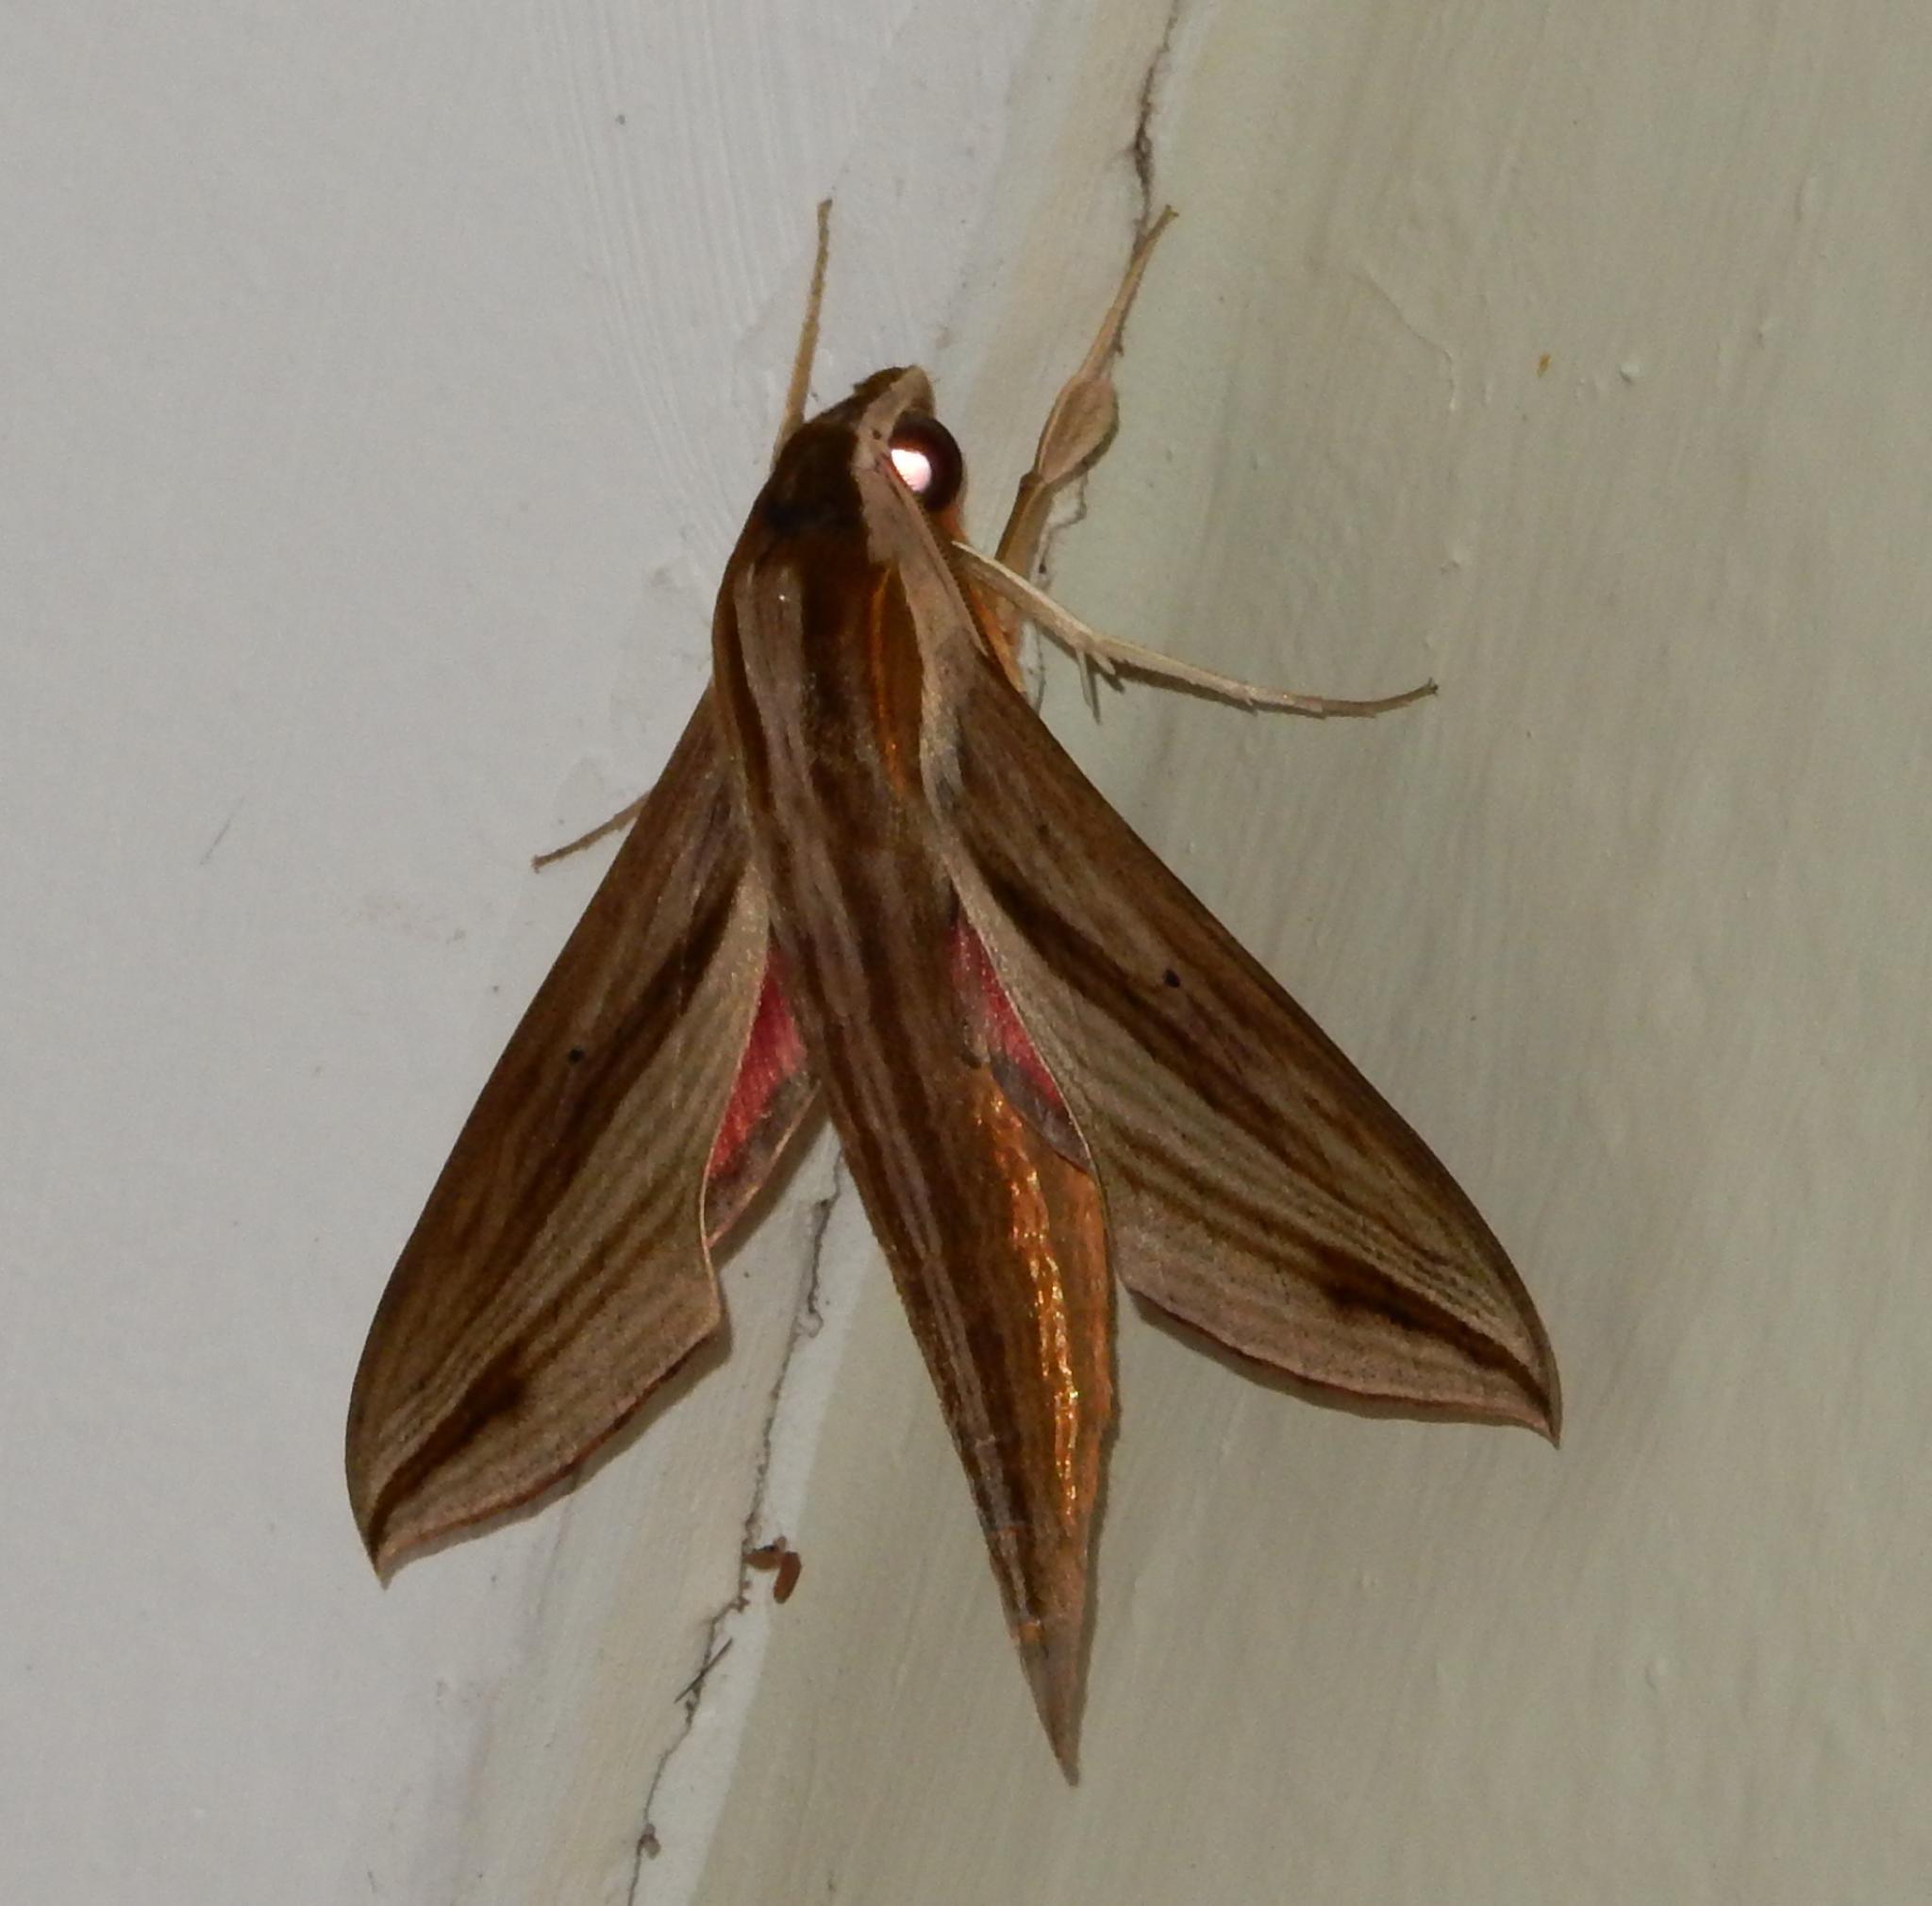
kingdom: Animalia
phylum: Arthropoda
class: Insecta
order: Lepidoptera
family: Sphingidae
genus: Hippotion
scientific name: Hippotion eson
